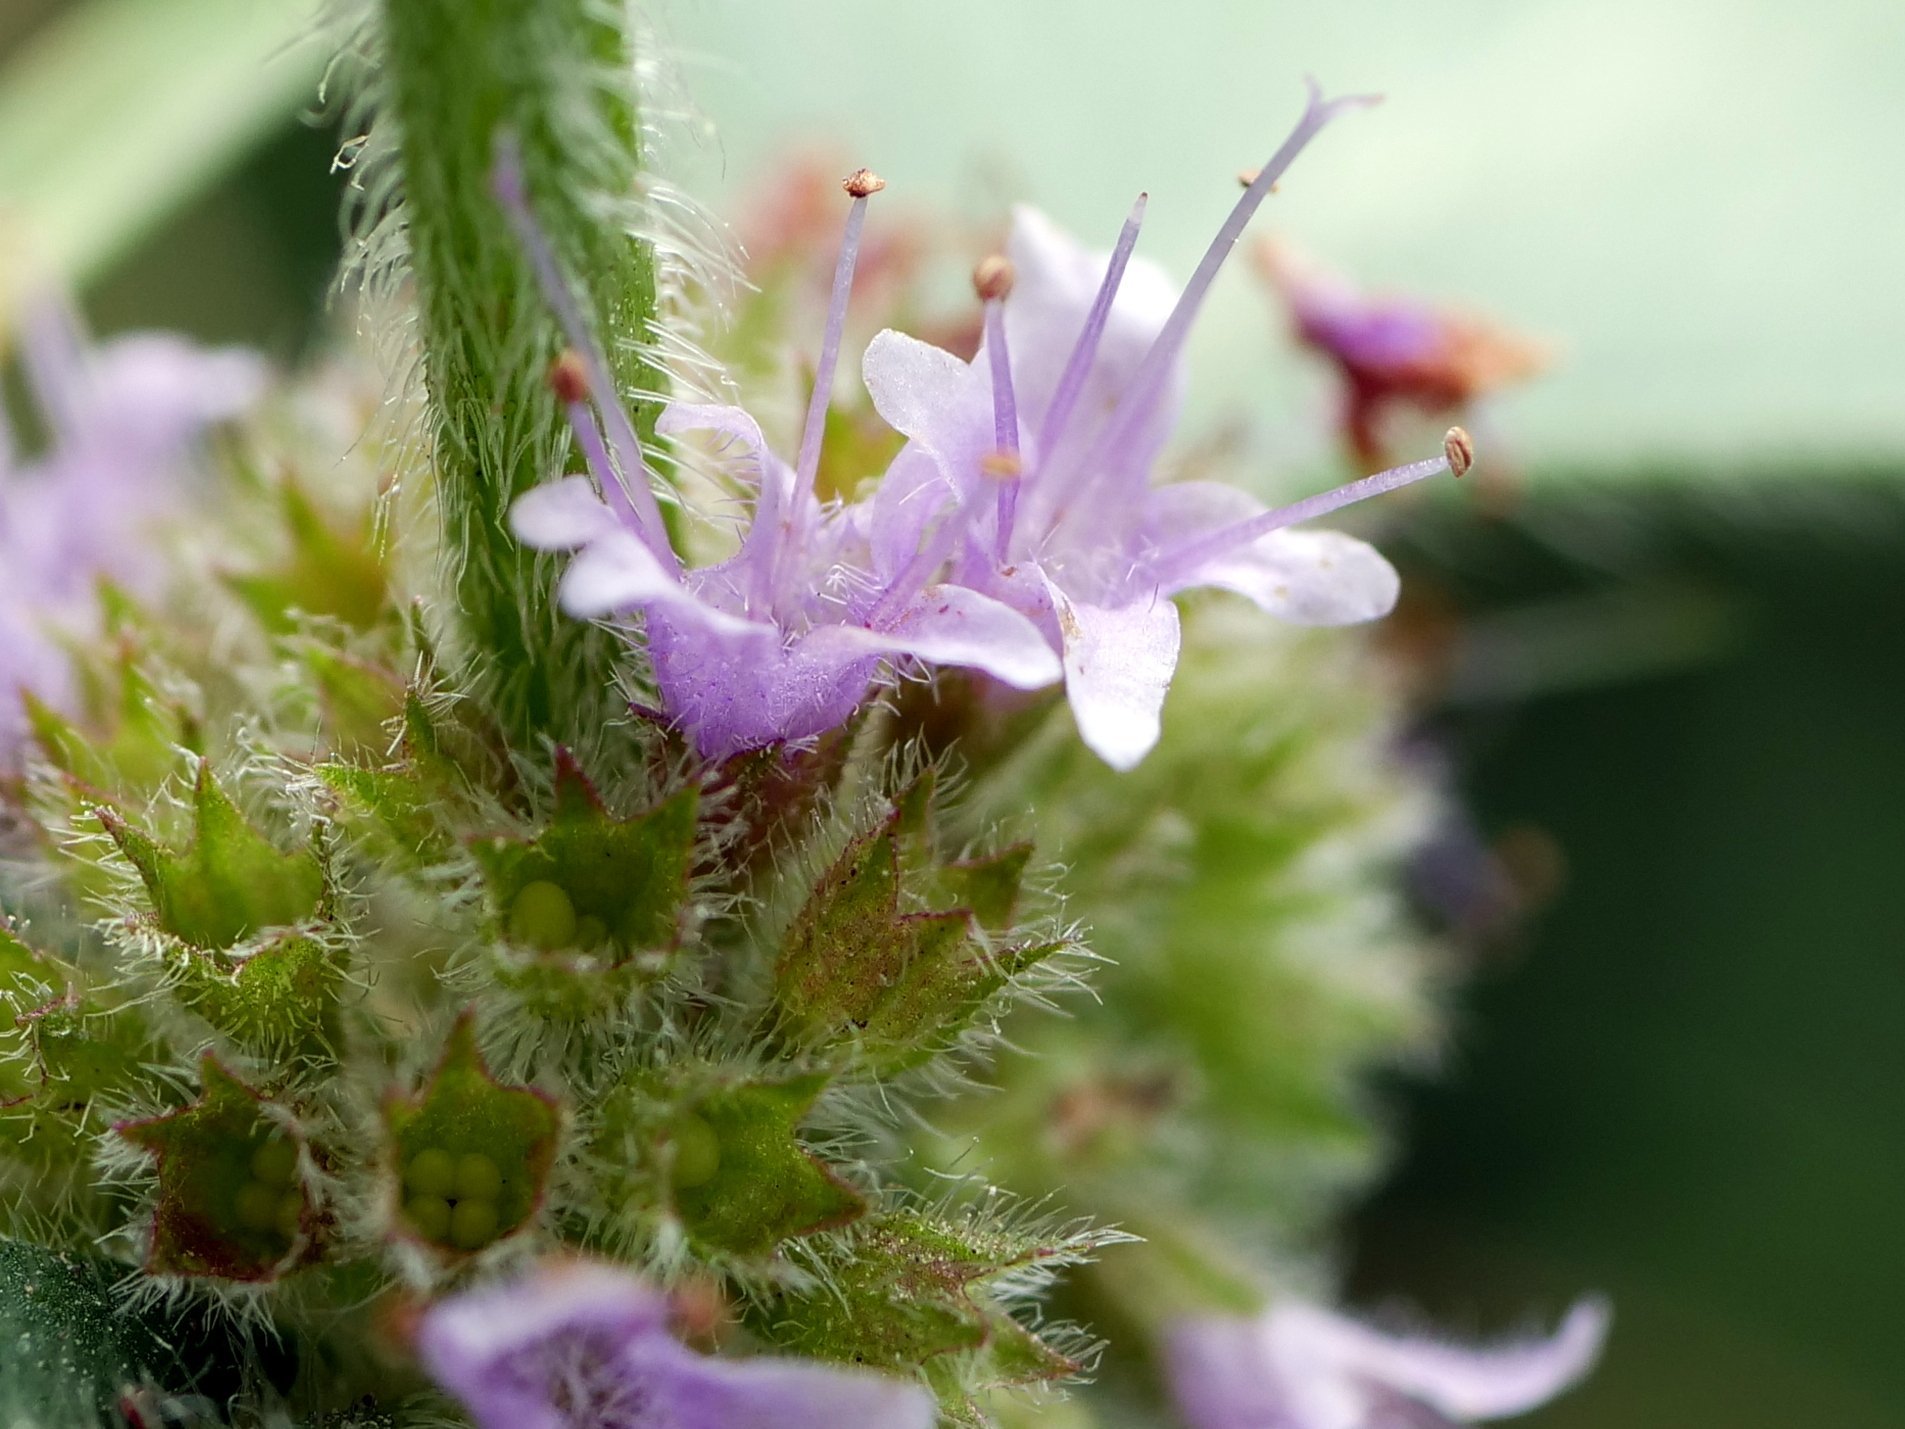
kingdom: Plantae
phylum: Tracheophyta
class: Magnoliopsida
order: Lamiales
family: Lamiaceae
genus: Mentha
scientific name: Mentha arvensis
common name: Corn mint
